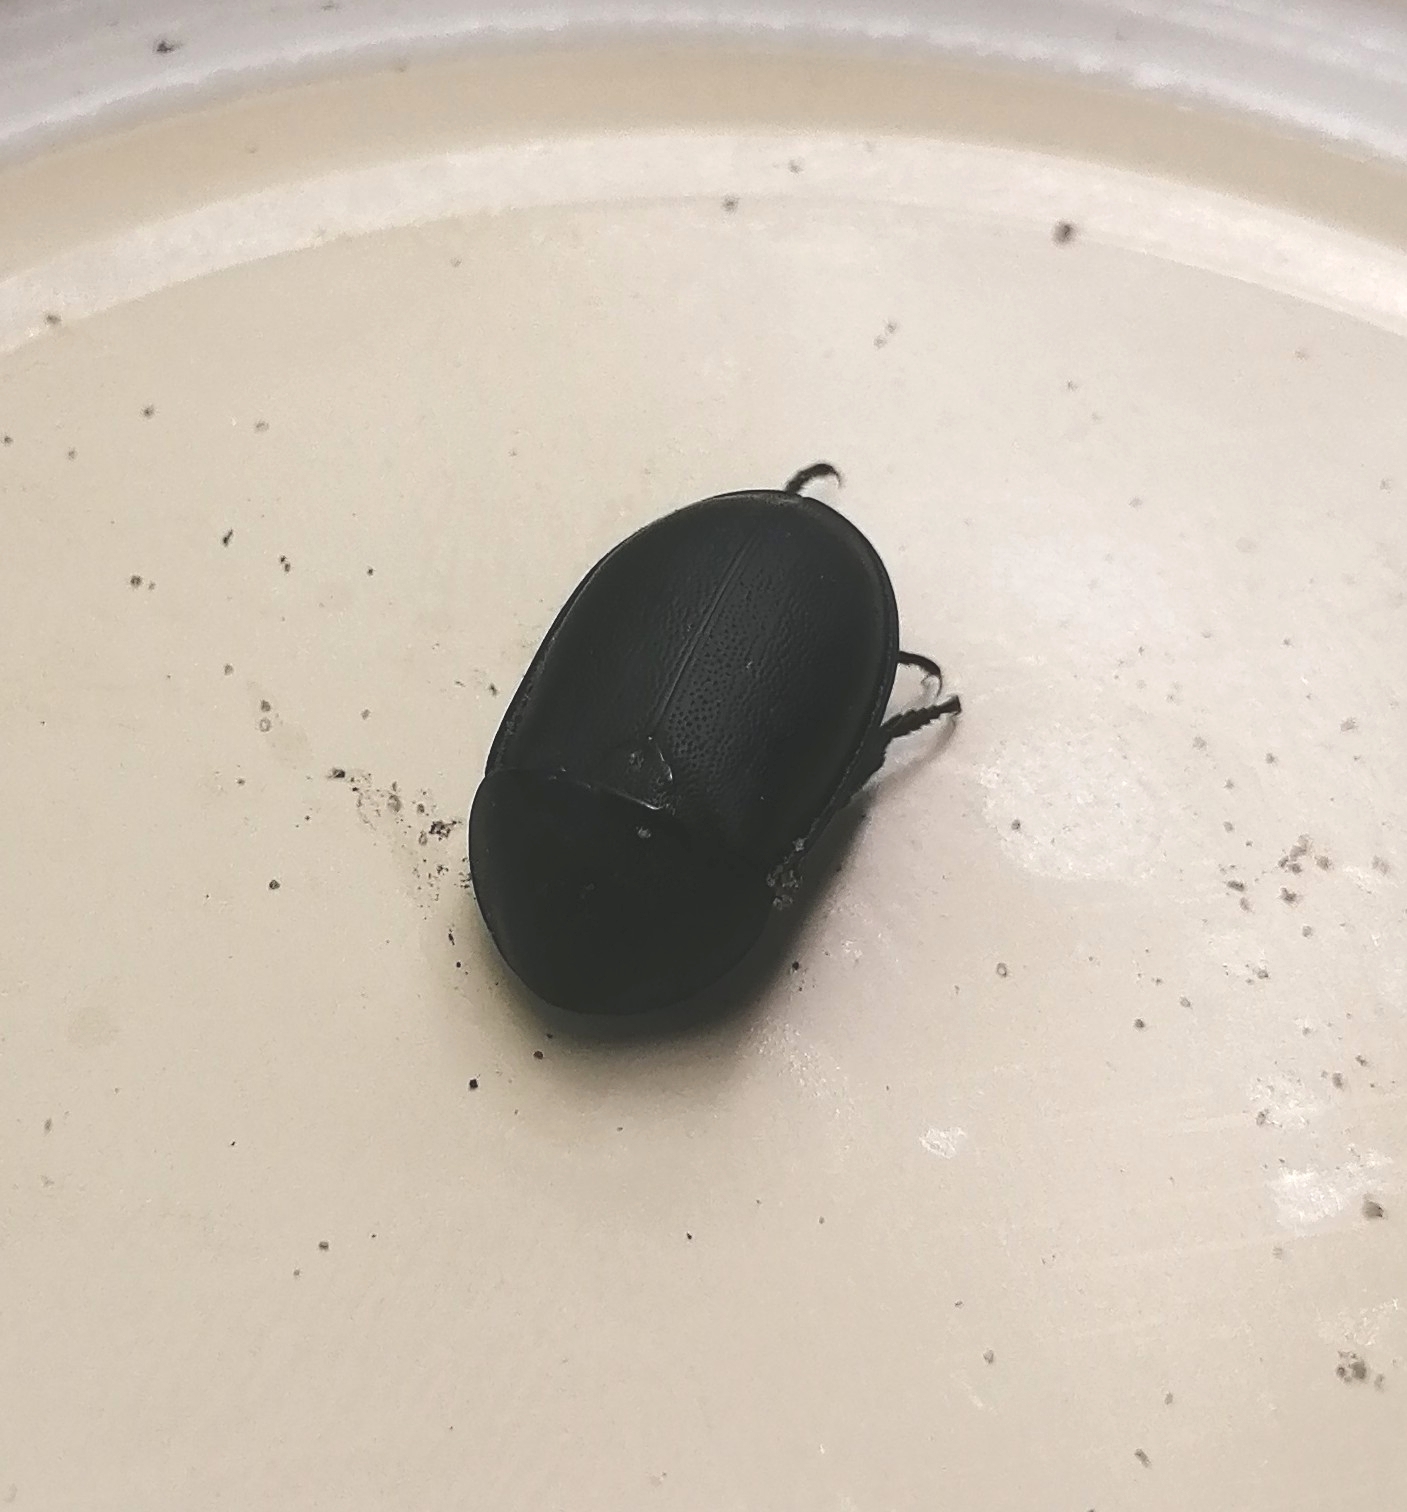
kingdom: Animalia
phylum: Arthropoda
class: Insecta
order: Coleoptera
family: Staphylinidae
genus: Silpha
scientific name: Silpha laevigata
